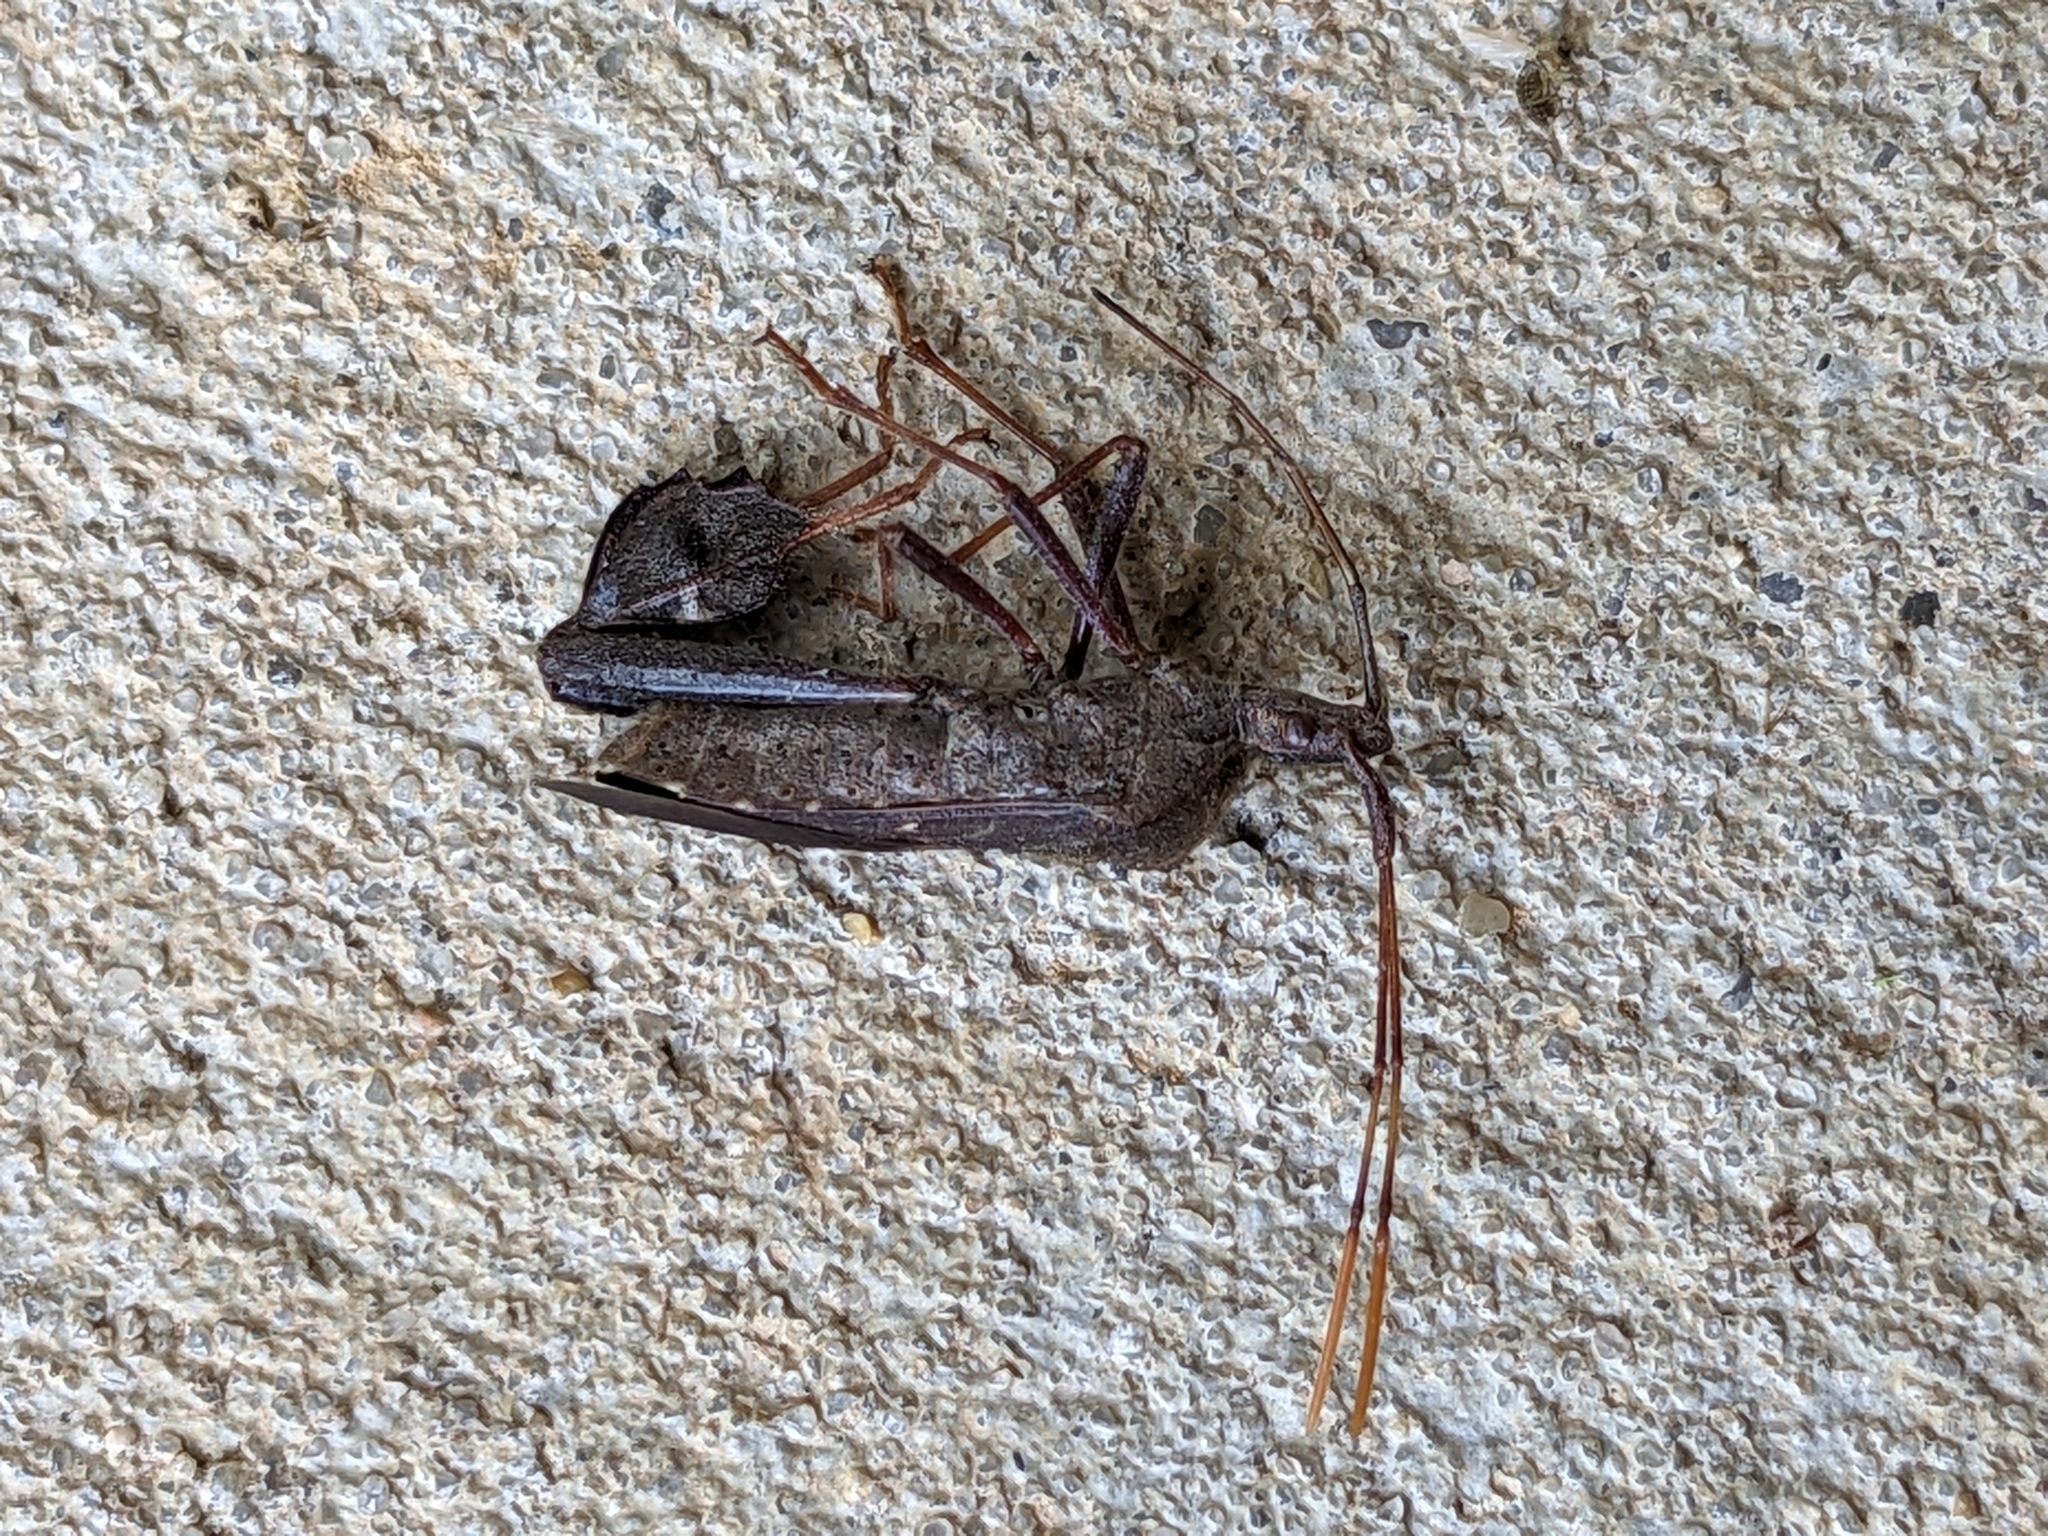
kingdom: Animalia
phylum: Arthropoda
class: Insecta
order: Hemiptera
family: Coreidae
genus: Leptoglossus
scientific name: Leptoglossus oppositus
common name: Northern leaf-footed bug
